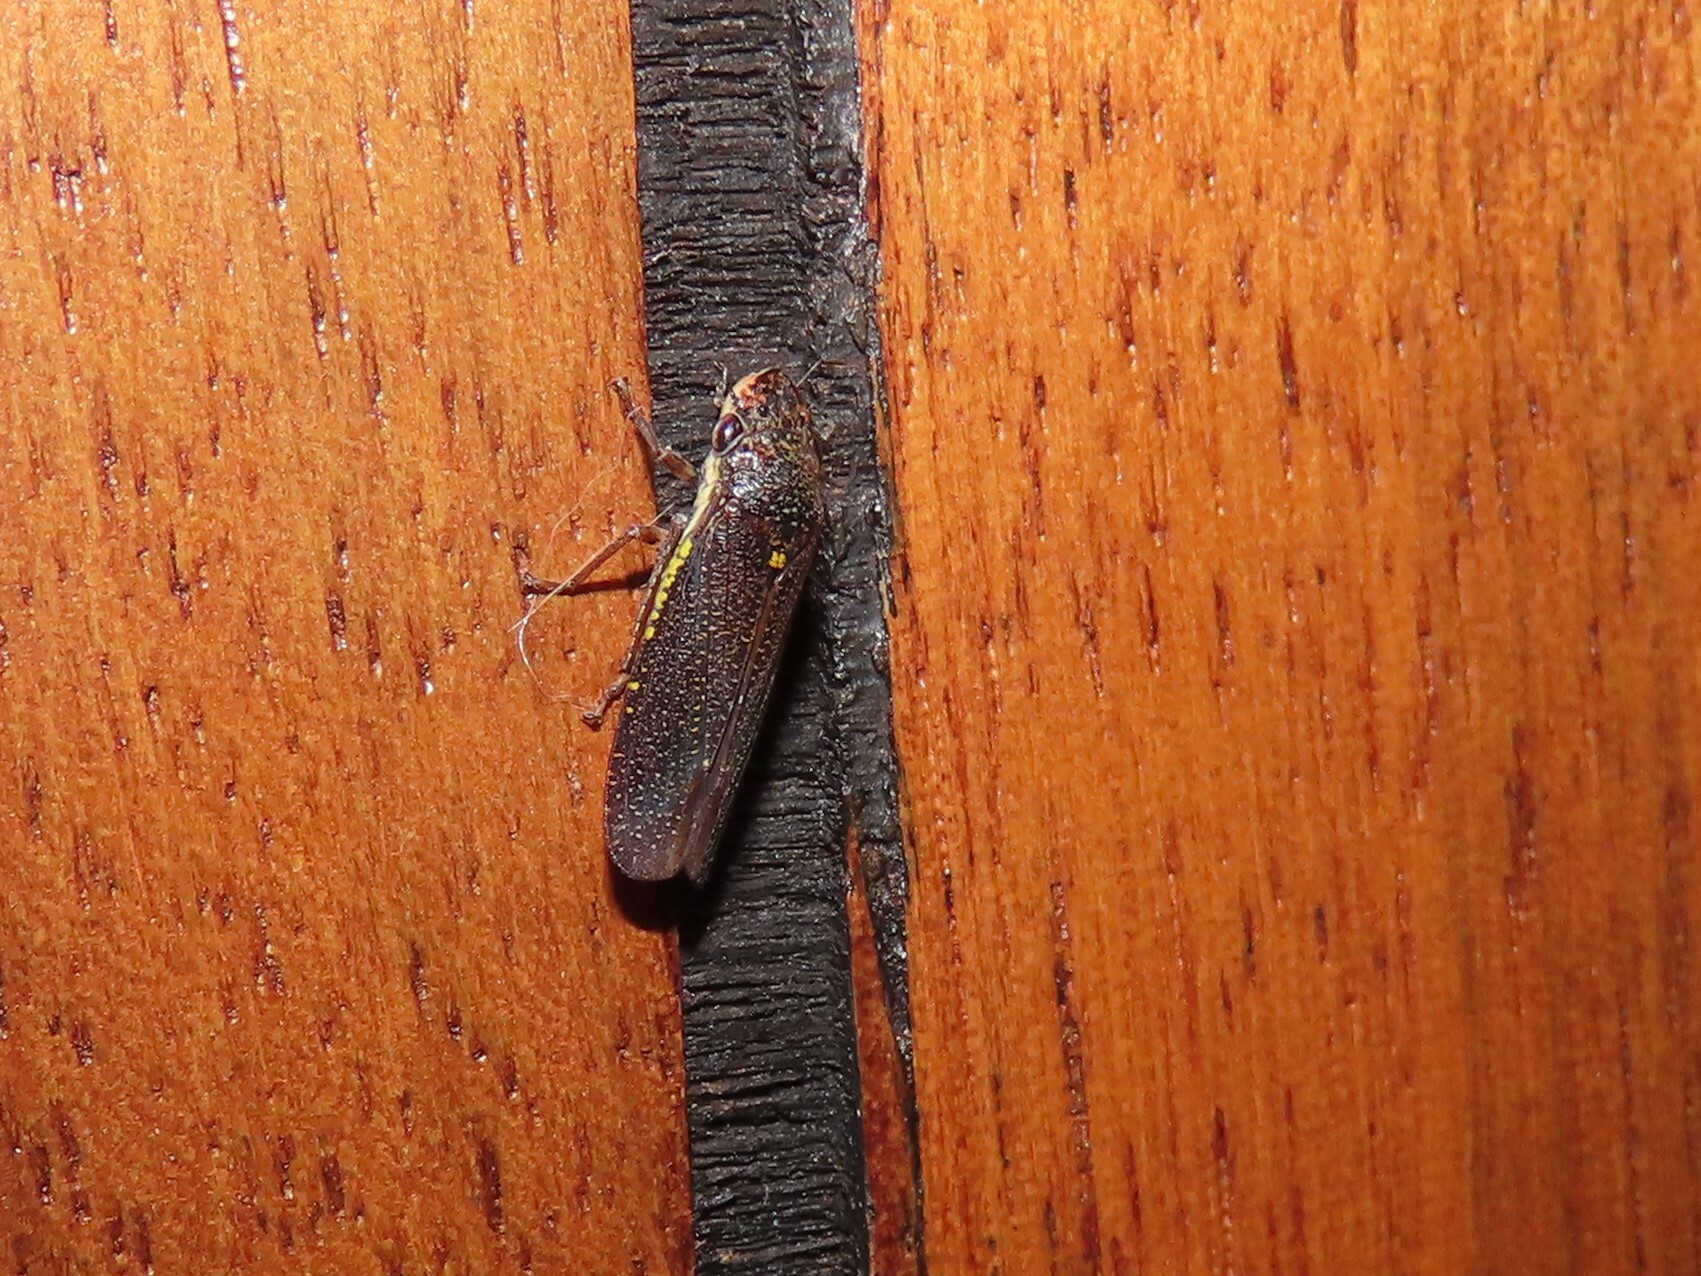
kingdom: Animalia
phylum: Arthropoda
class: Insecta
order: Hemiptera
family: Cicadellidae
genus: Paraulacizes
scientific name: Paraulacizes irrorata
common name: Speckled sharpshooter
